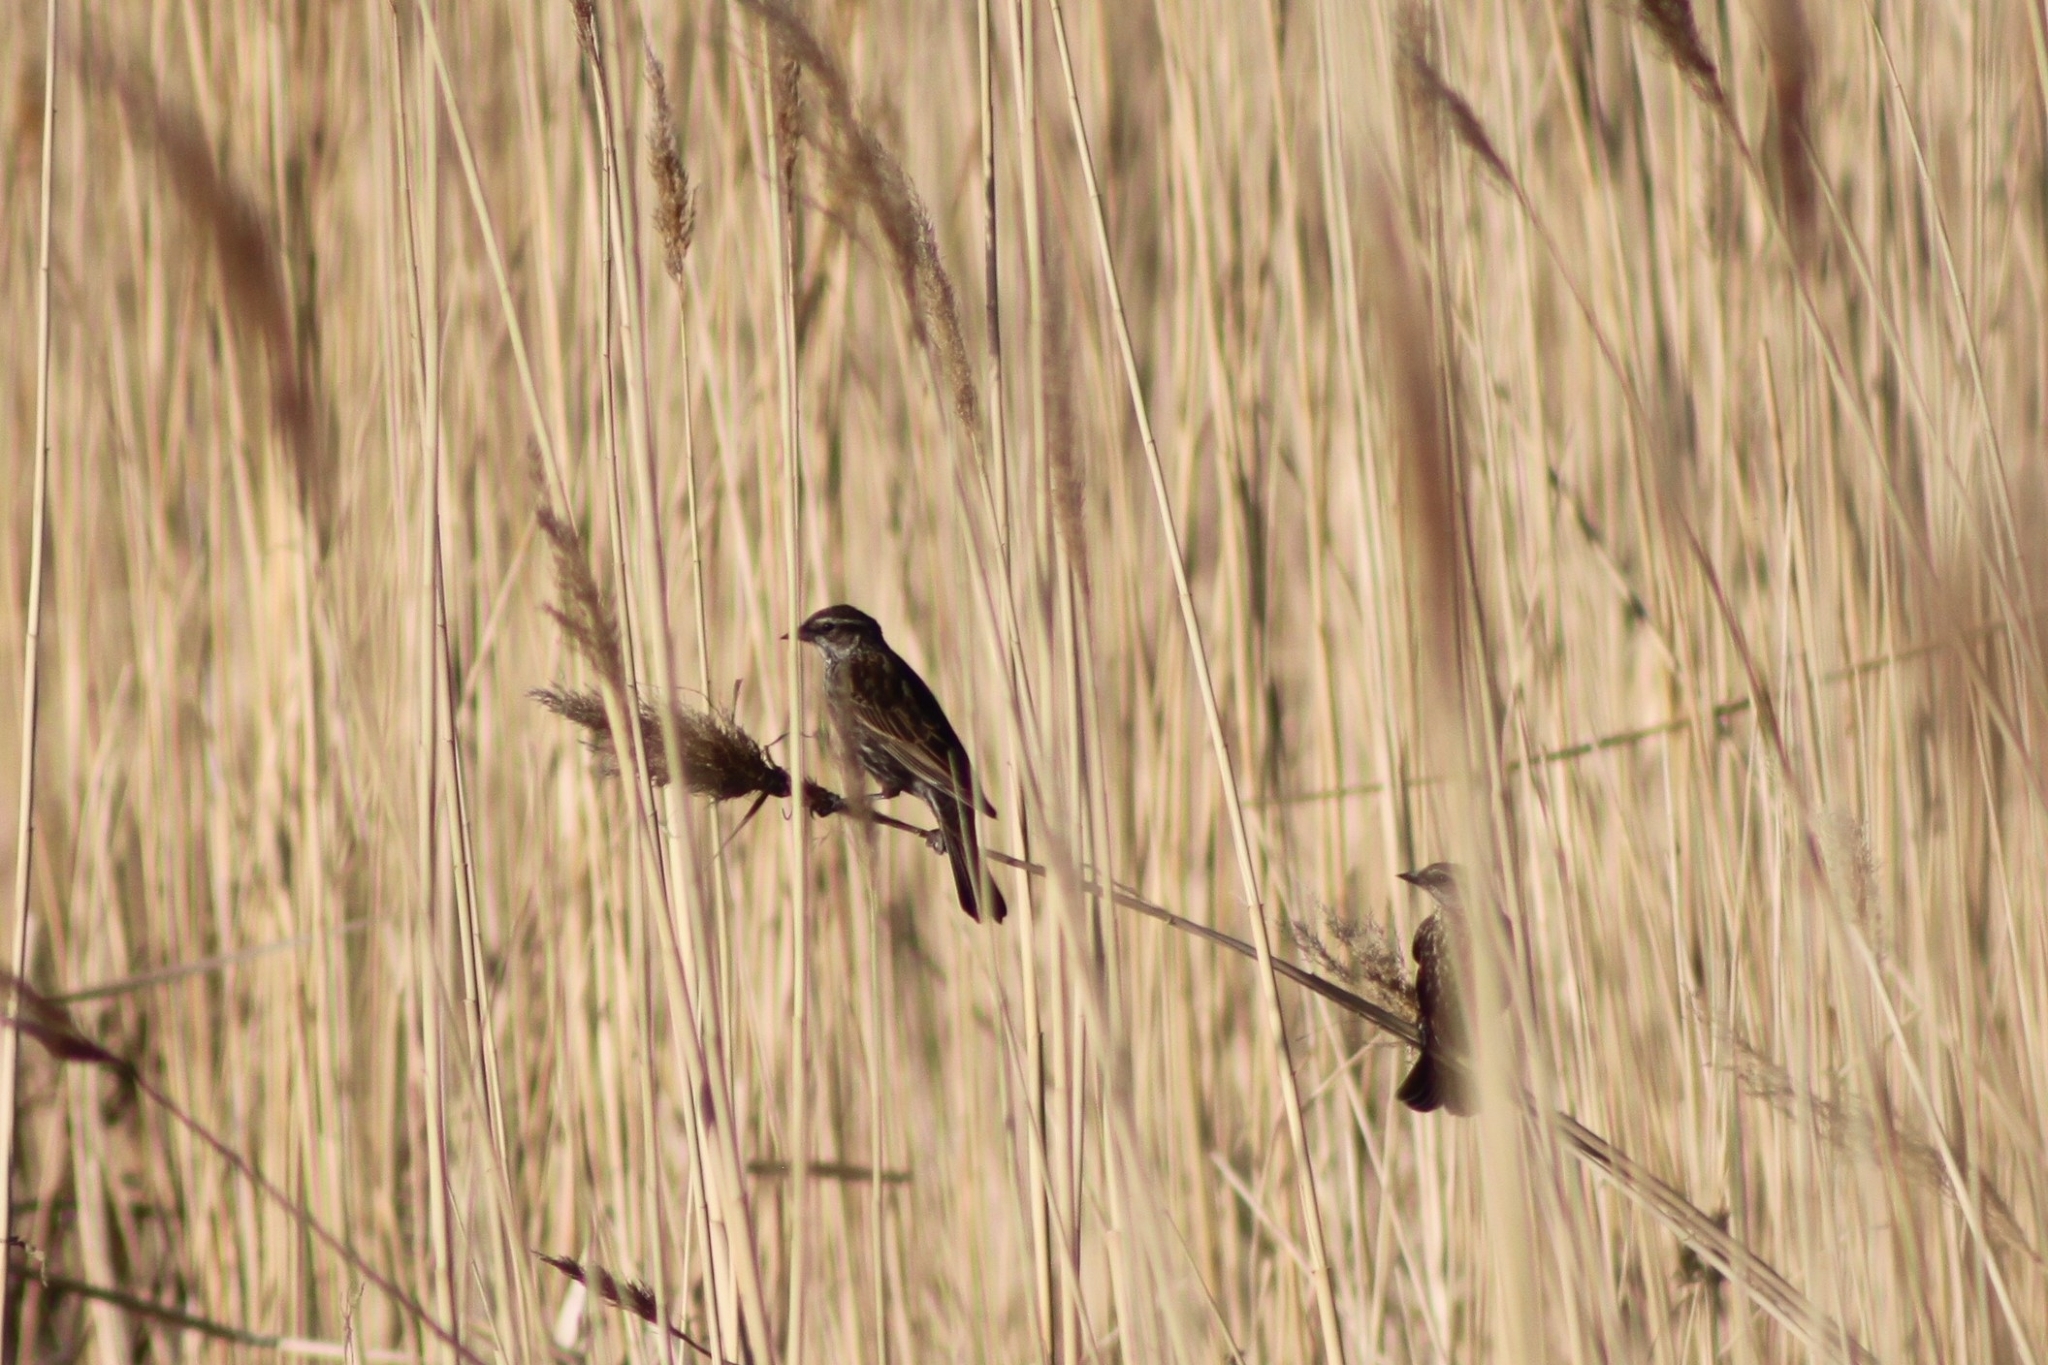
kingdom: Animalia
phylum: Chordata
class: Aves
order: Passeriformes
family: Icteridae
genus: Agelaius
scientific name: Agelaius phoeniceus
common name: Red-winged blackbird
